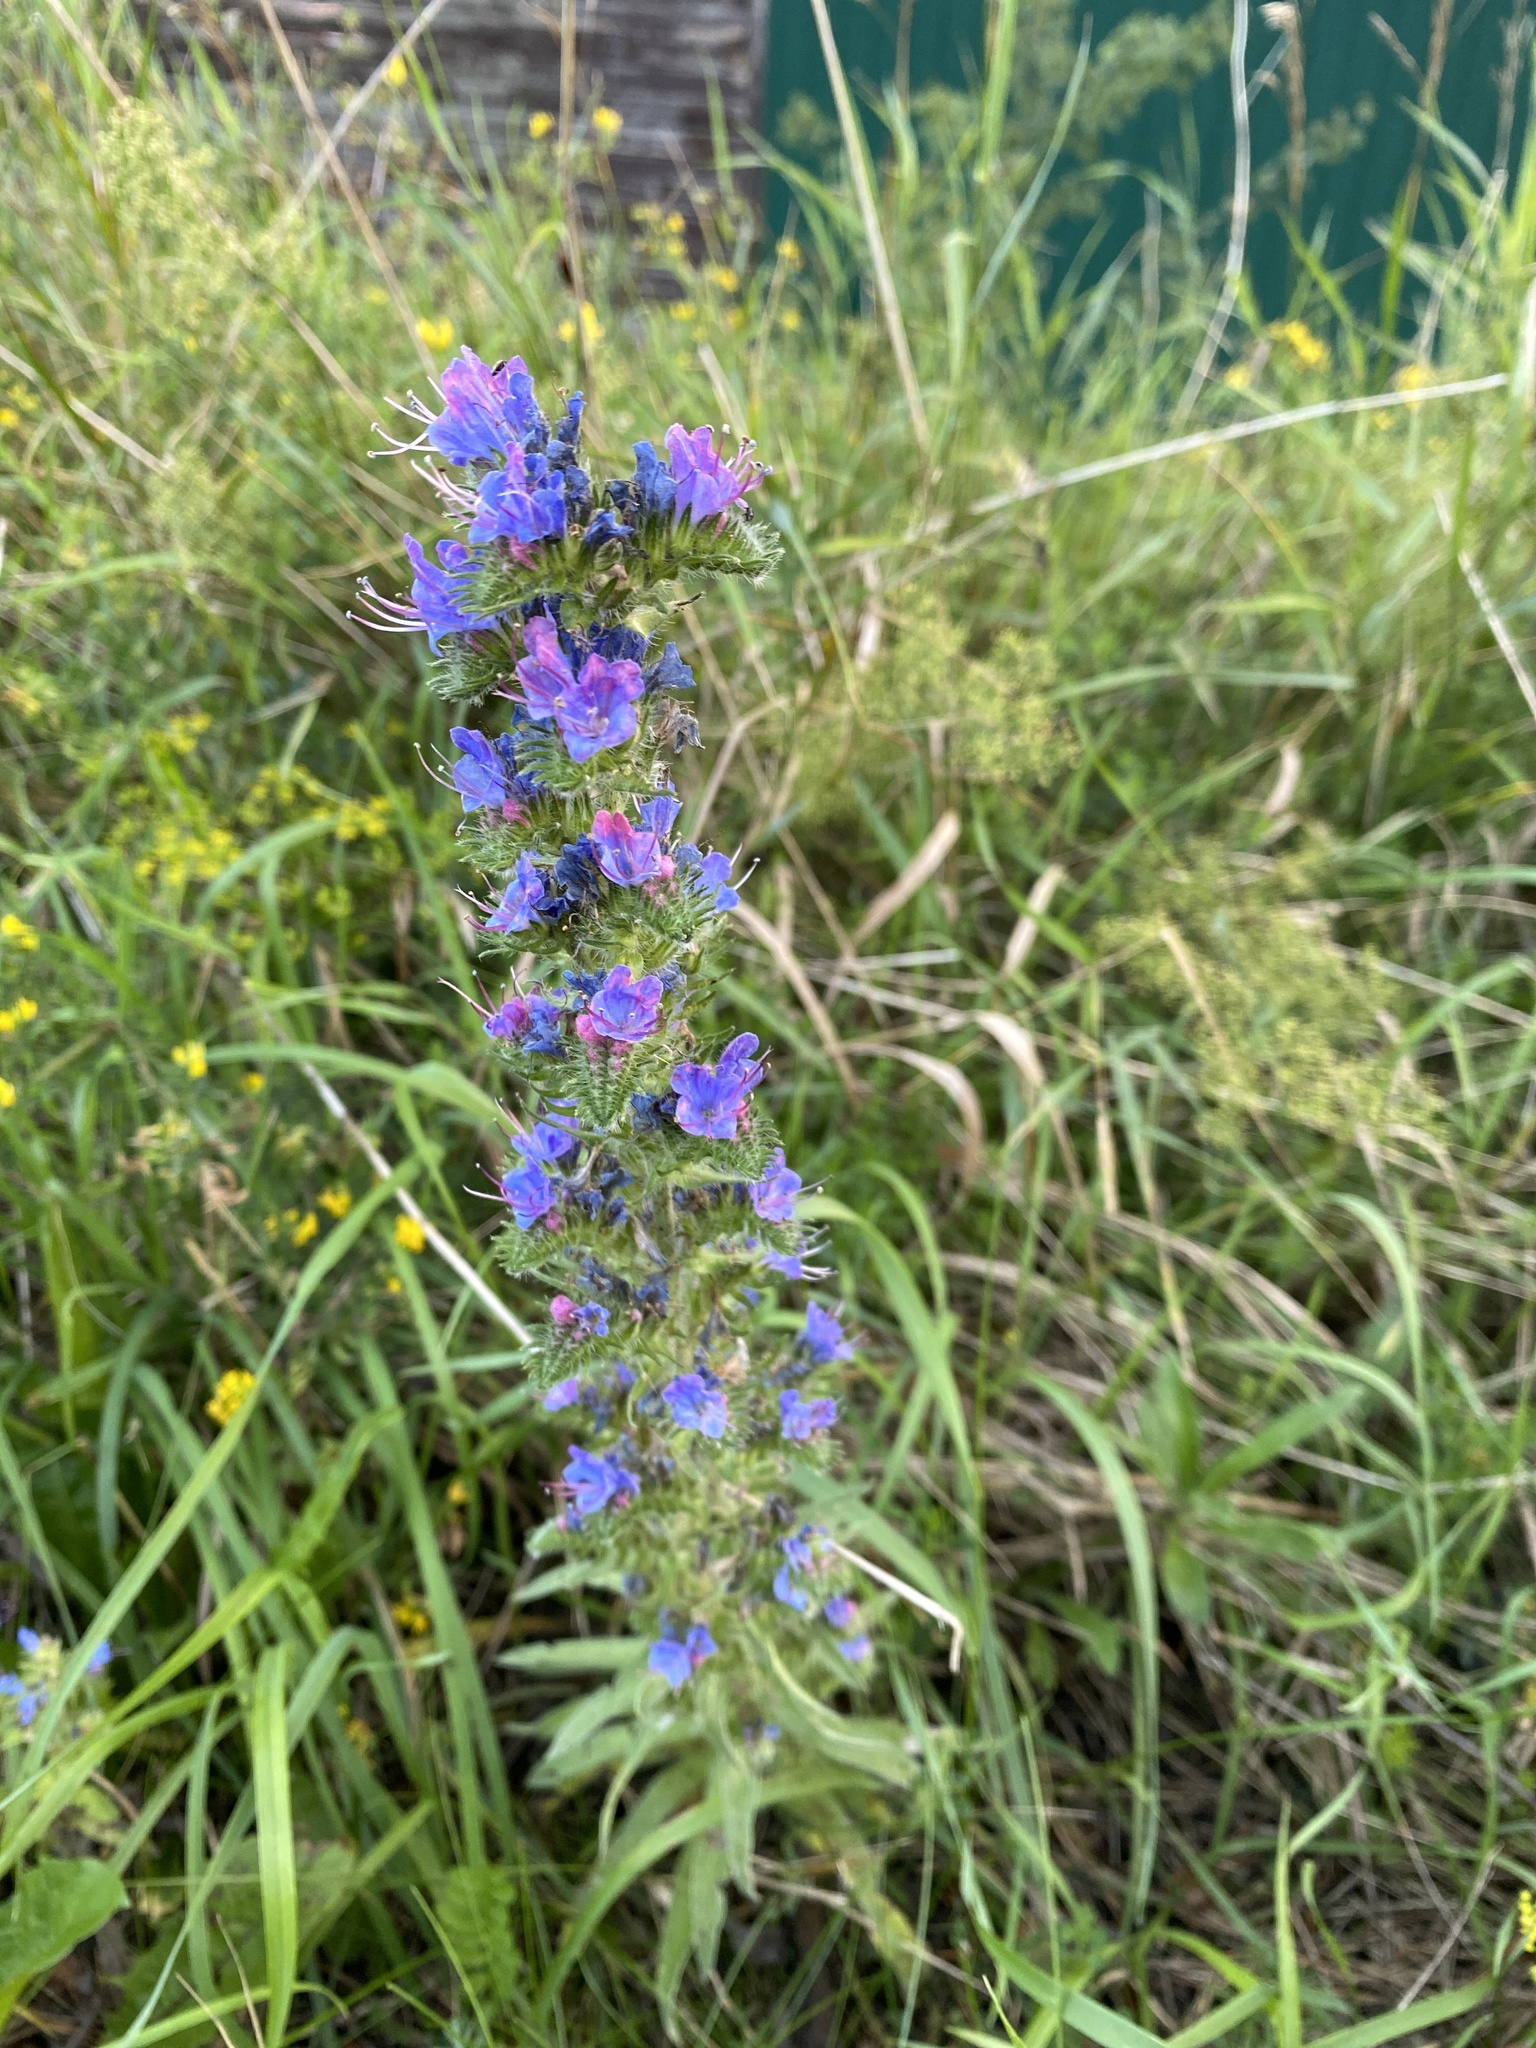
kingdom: Plantae
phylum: Tracheophyta
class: Magnoliopsida
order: Boraginales
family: Boraginaceae
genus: Echium
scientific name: Echium vulgare
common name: Common viper's bugloss
